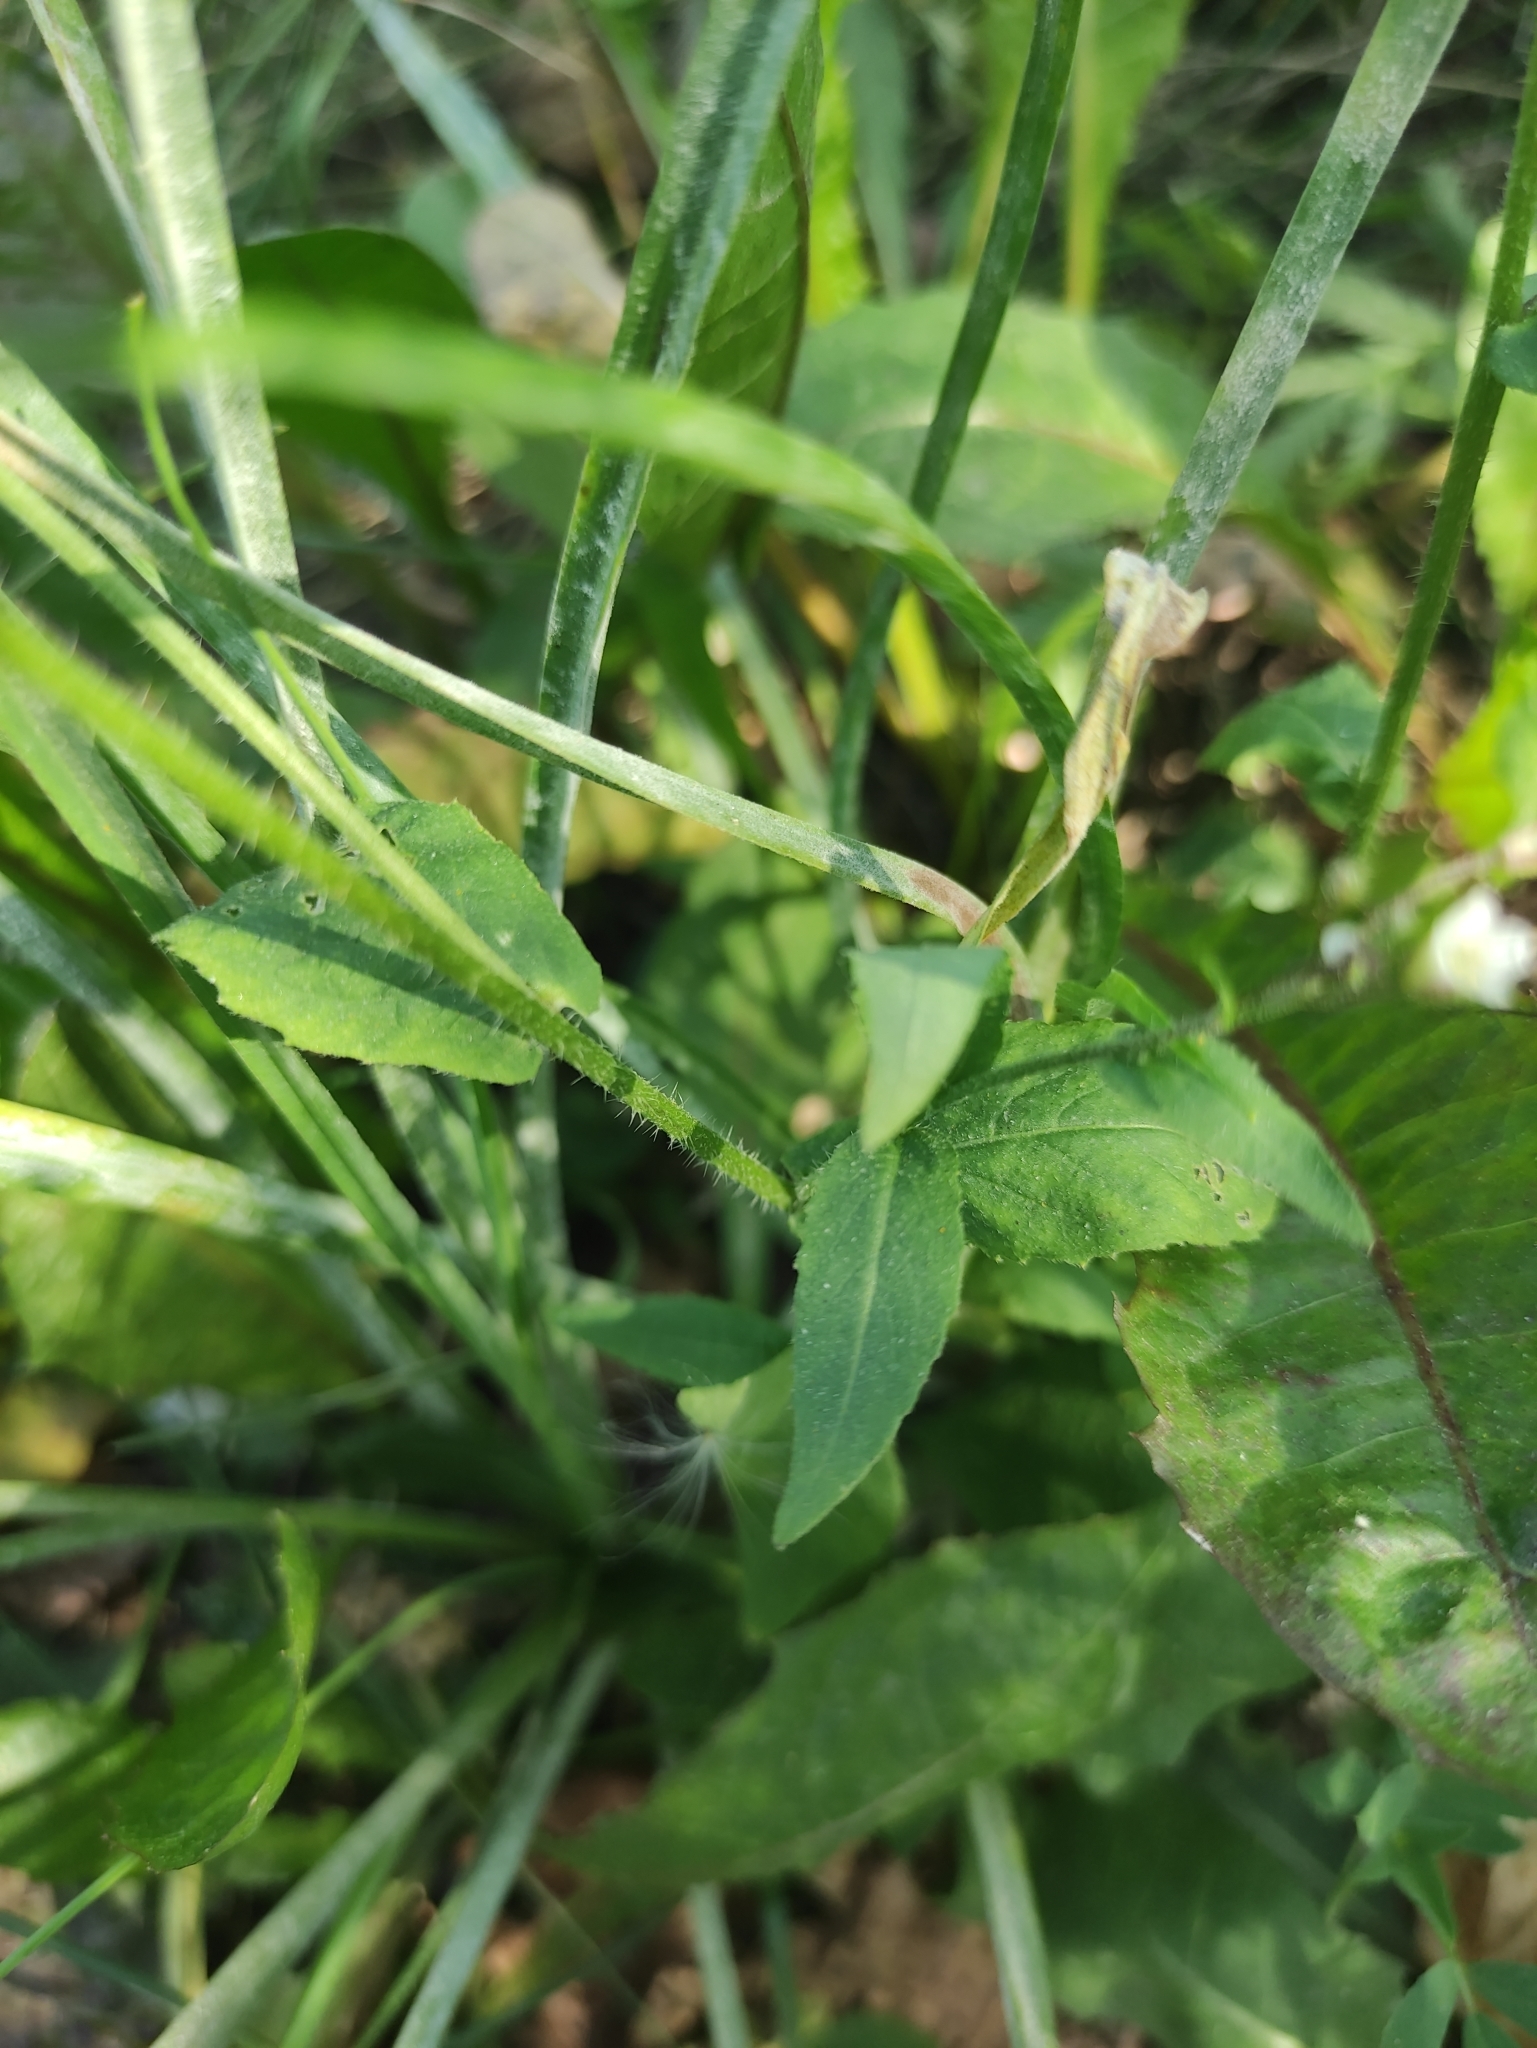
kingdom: Plantae
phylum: Tracheophyta
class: Magnoliopsida
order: Brassicales
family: Brassicaceae
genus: Catolobus
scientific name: Catolobus pendulus
